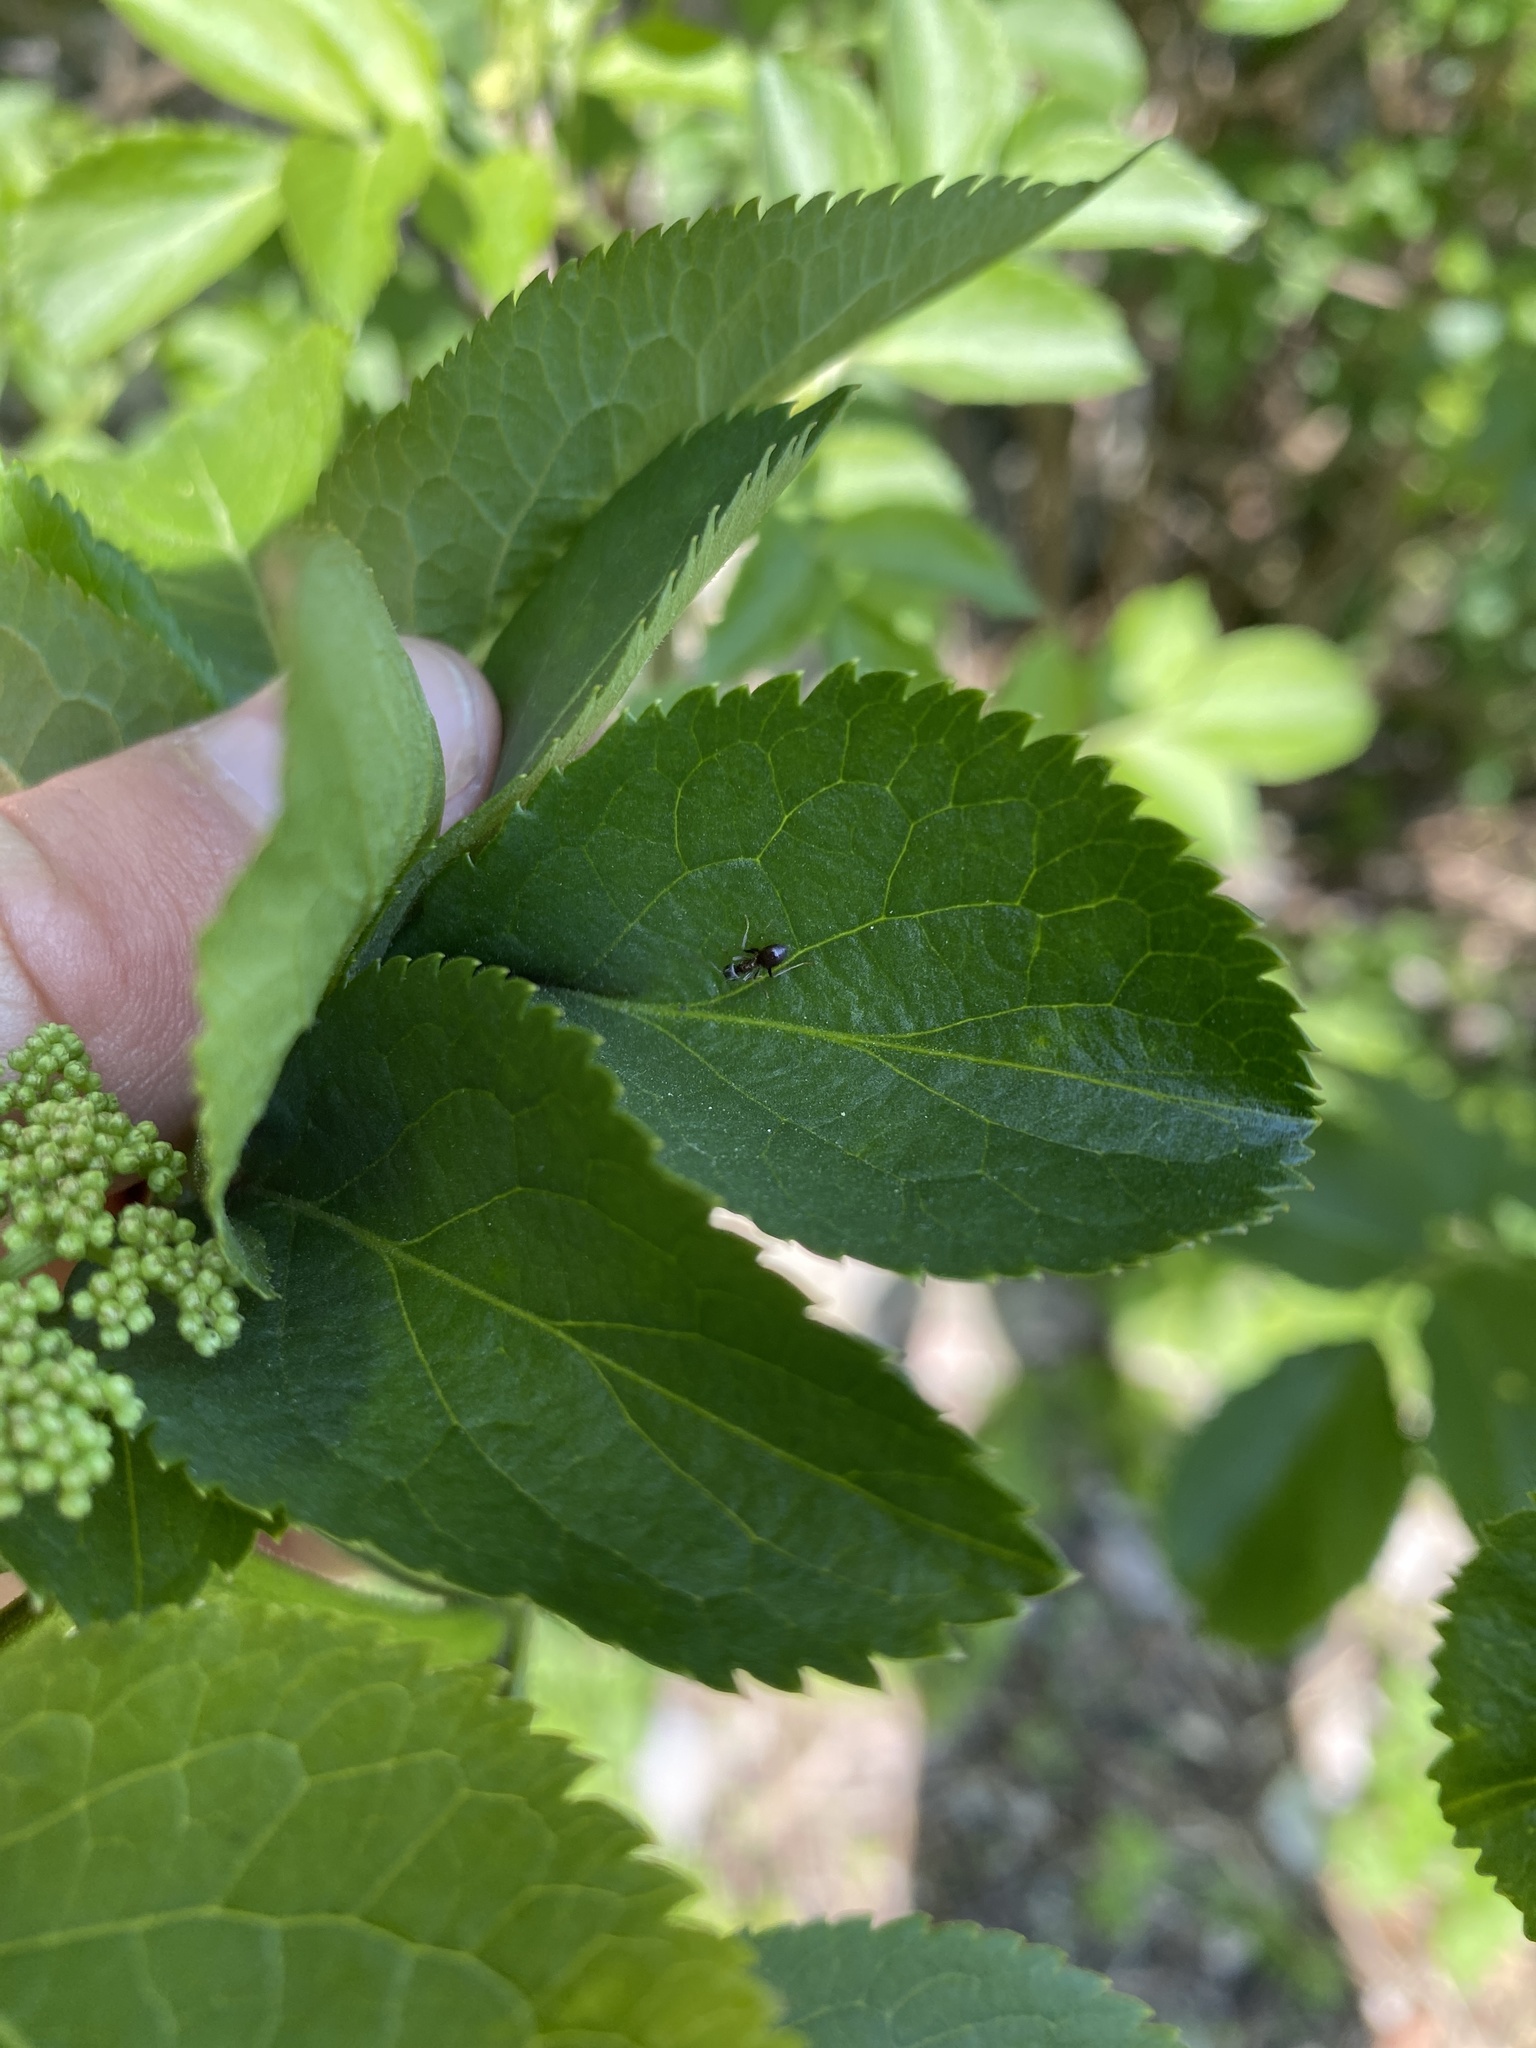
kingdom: Plantae
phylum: Tracheophyta
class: Magnoliopsida
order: Dipsacales
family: Viburnaceae
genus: Sambucus
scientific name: Sambucus nigra
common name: Elder
